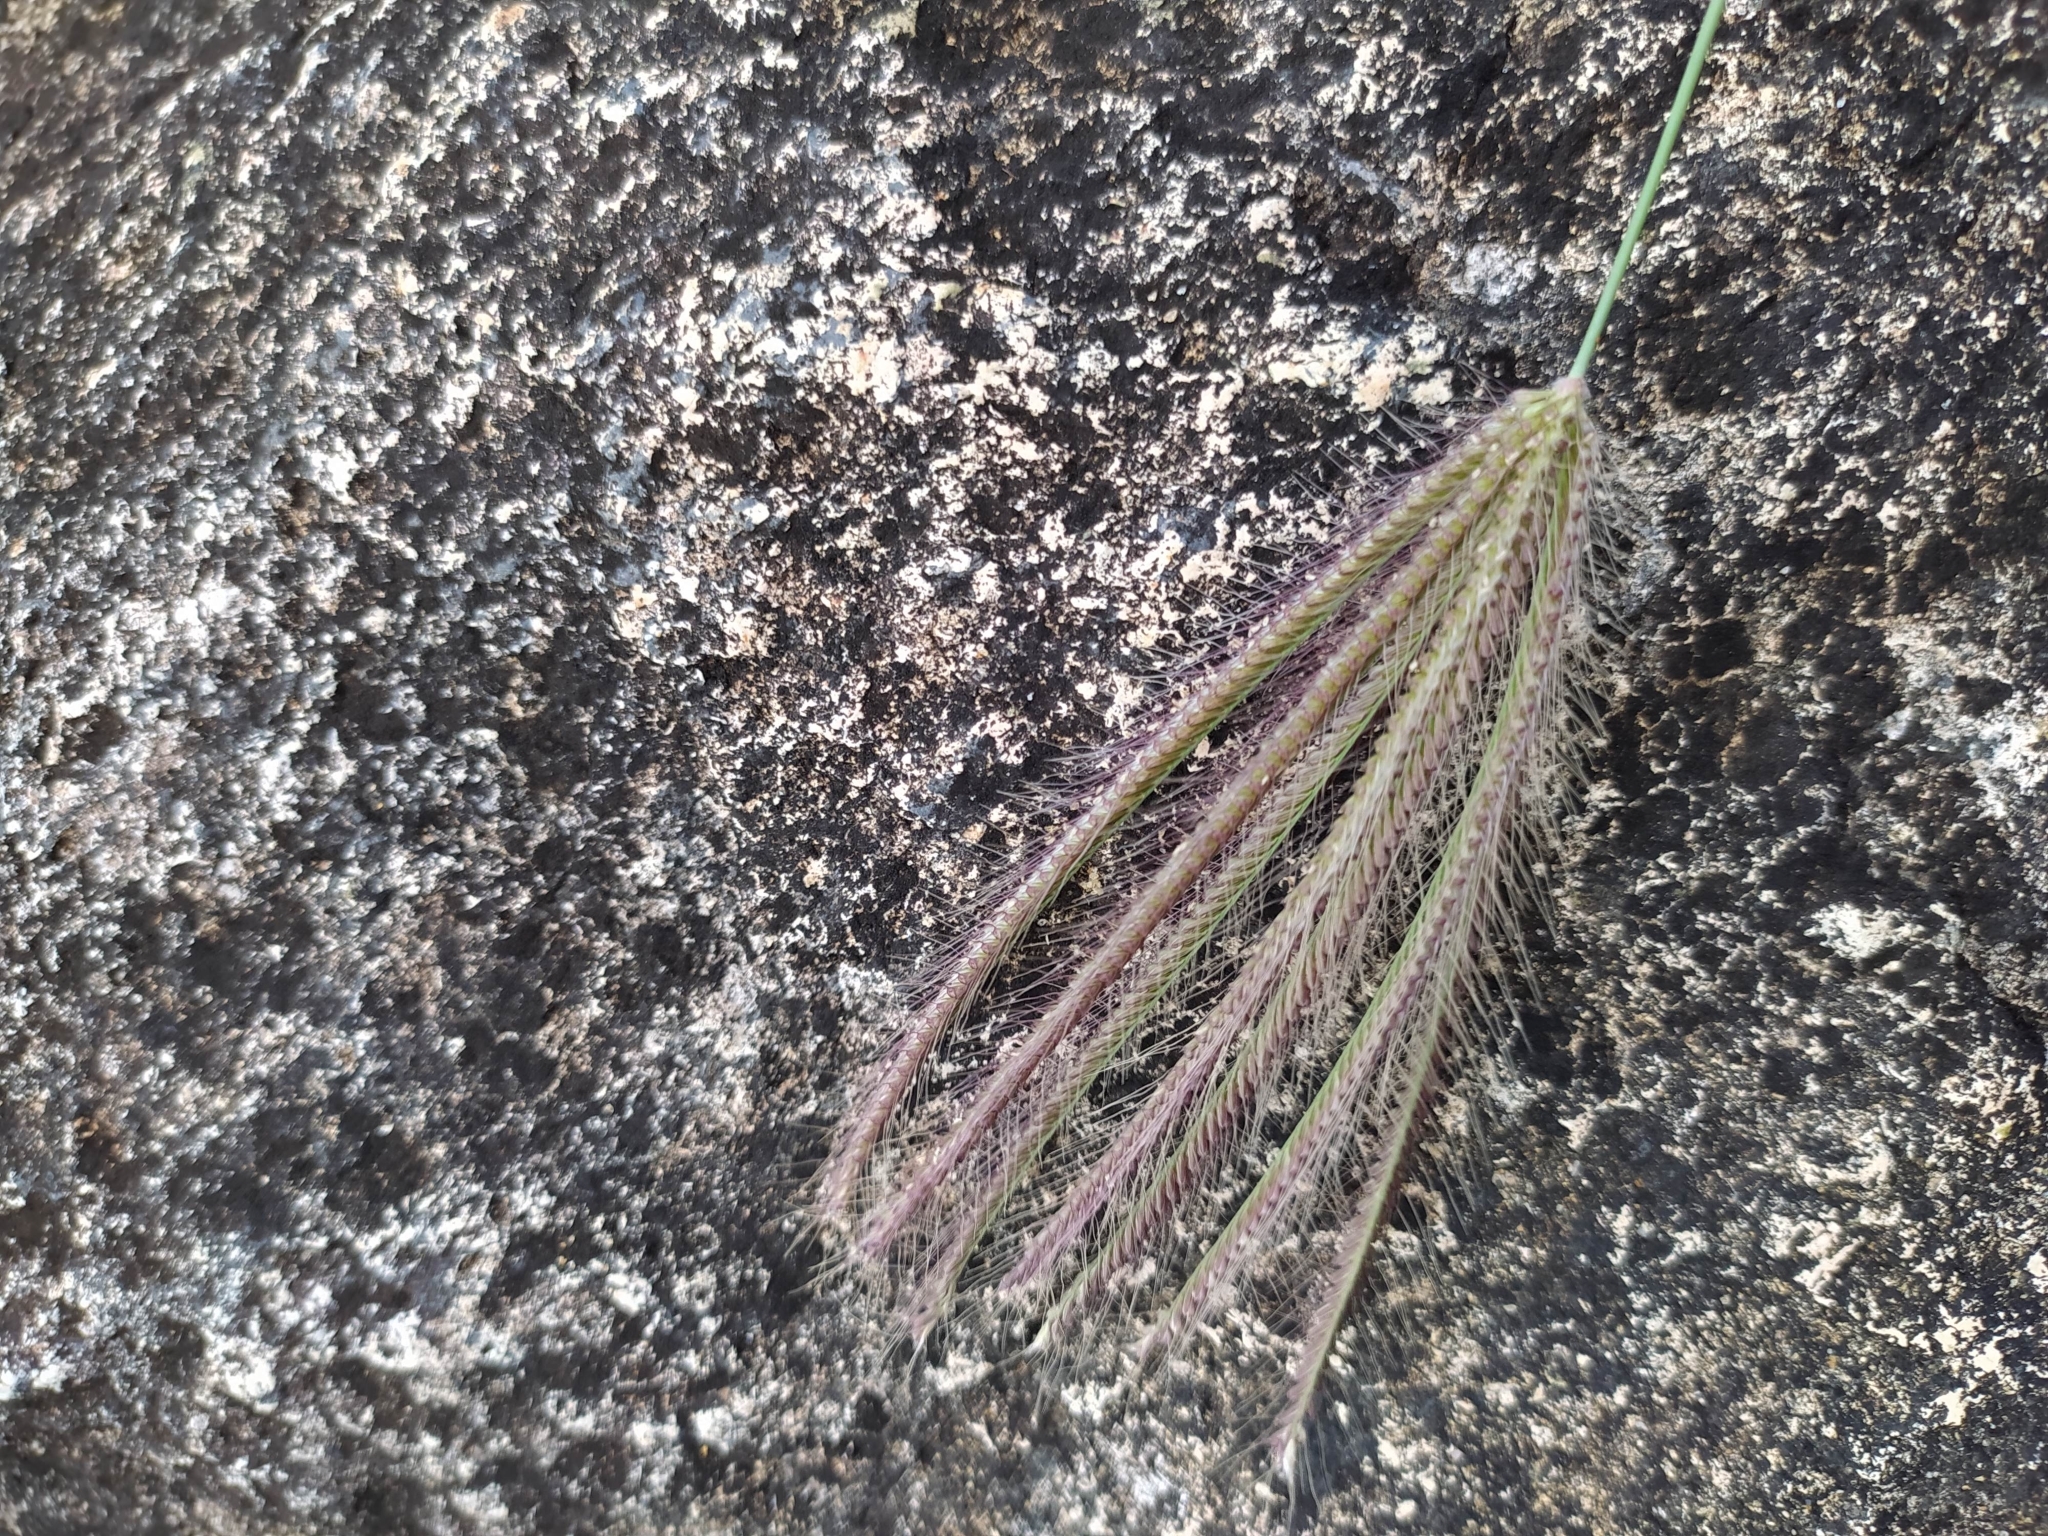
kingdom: Plantae
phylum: Tracheophyta
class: Liliopsida
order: Poales
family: Poaceae
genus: Chloris
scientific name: Chloris barbata
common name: Swollen fingergrass
